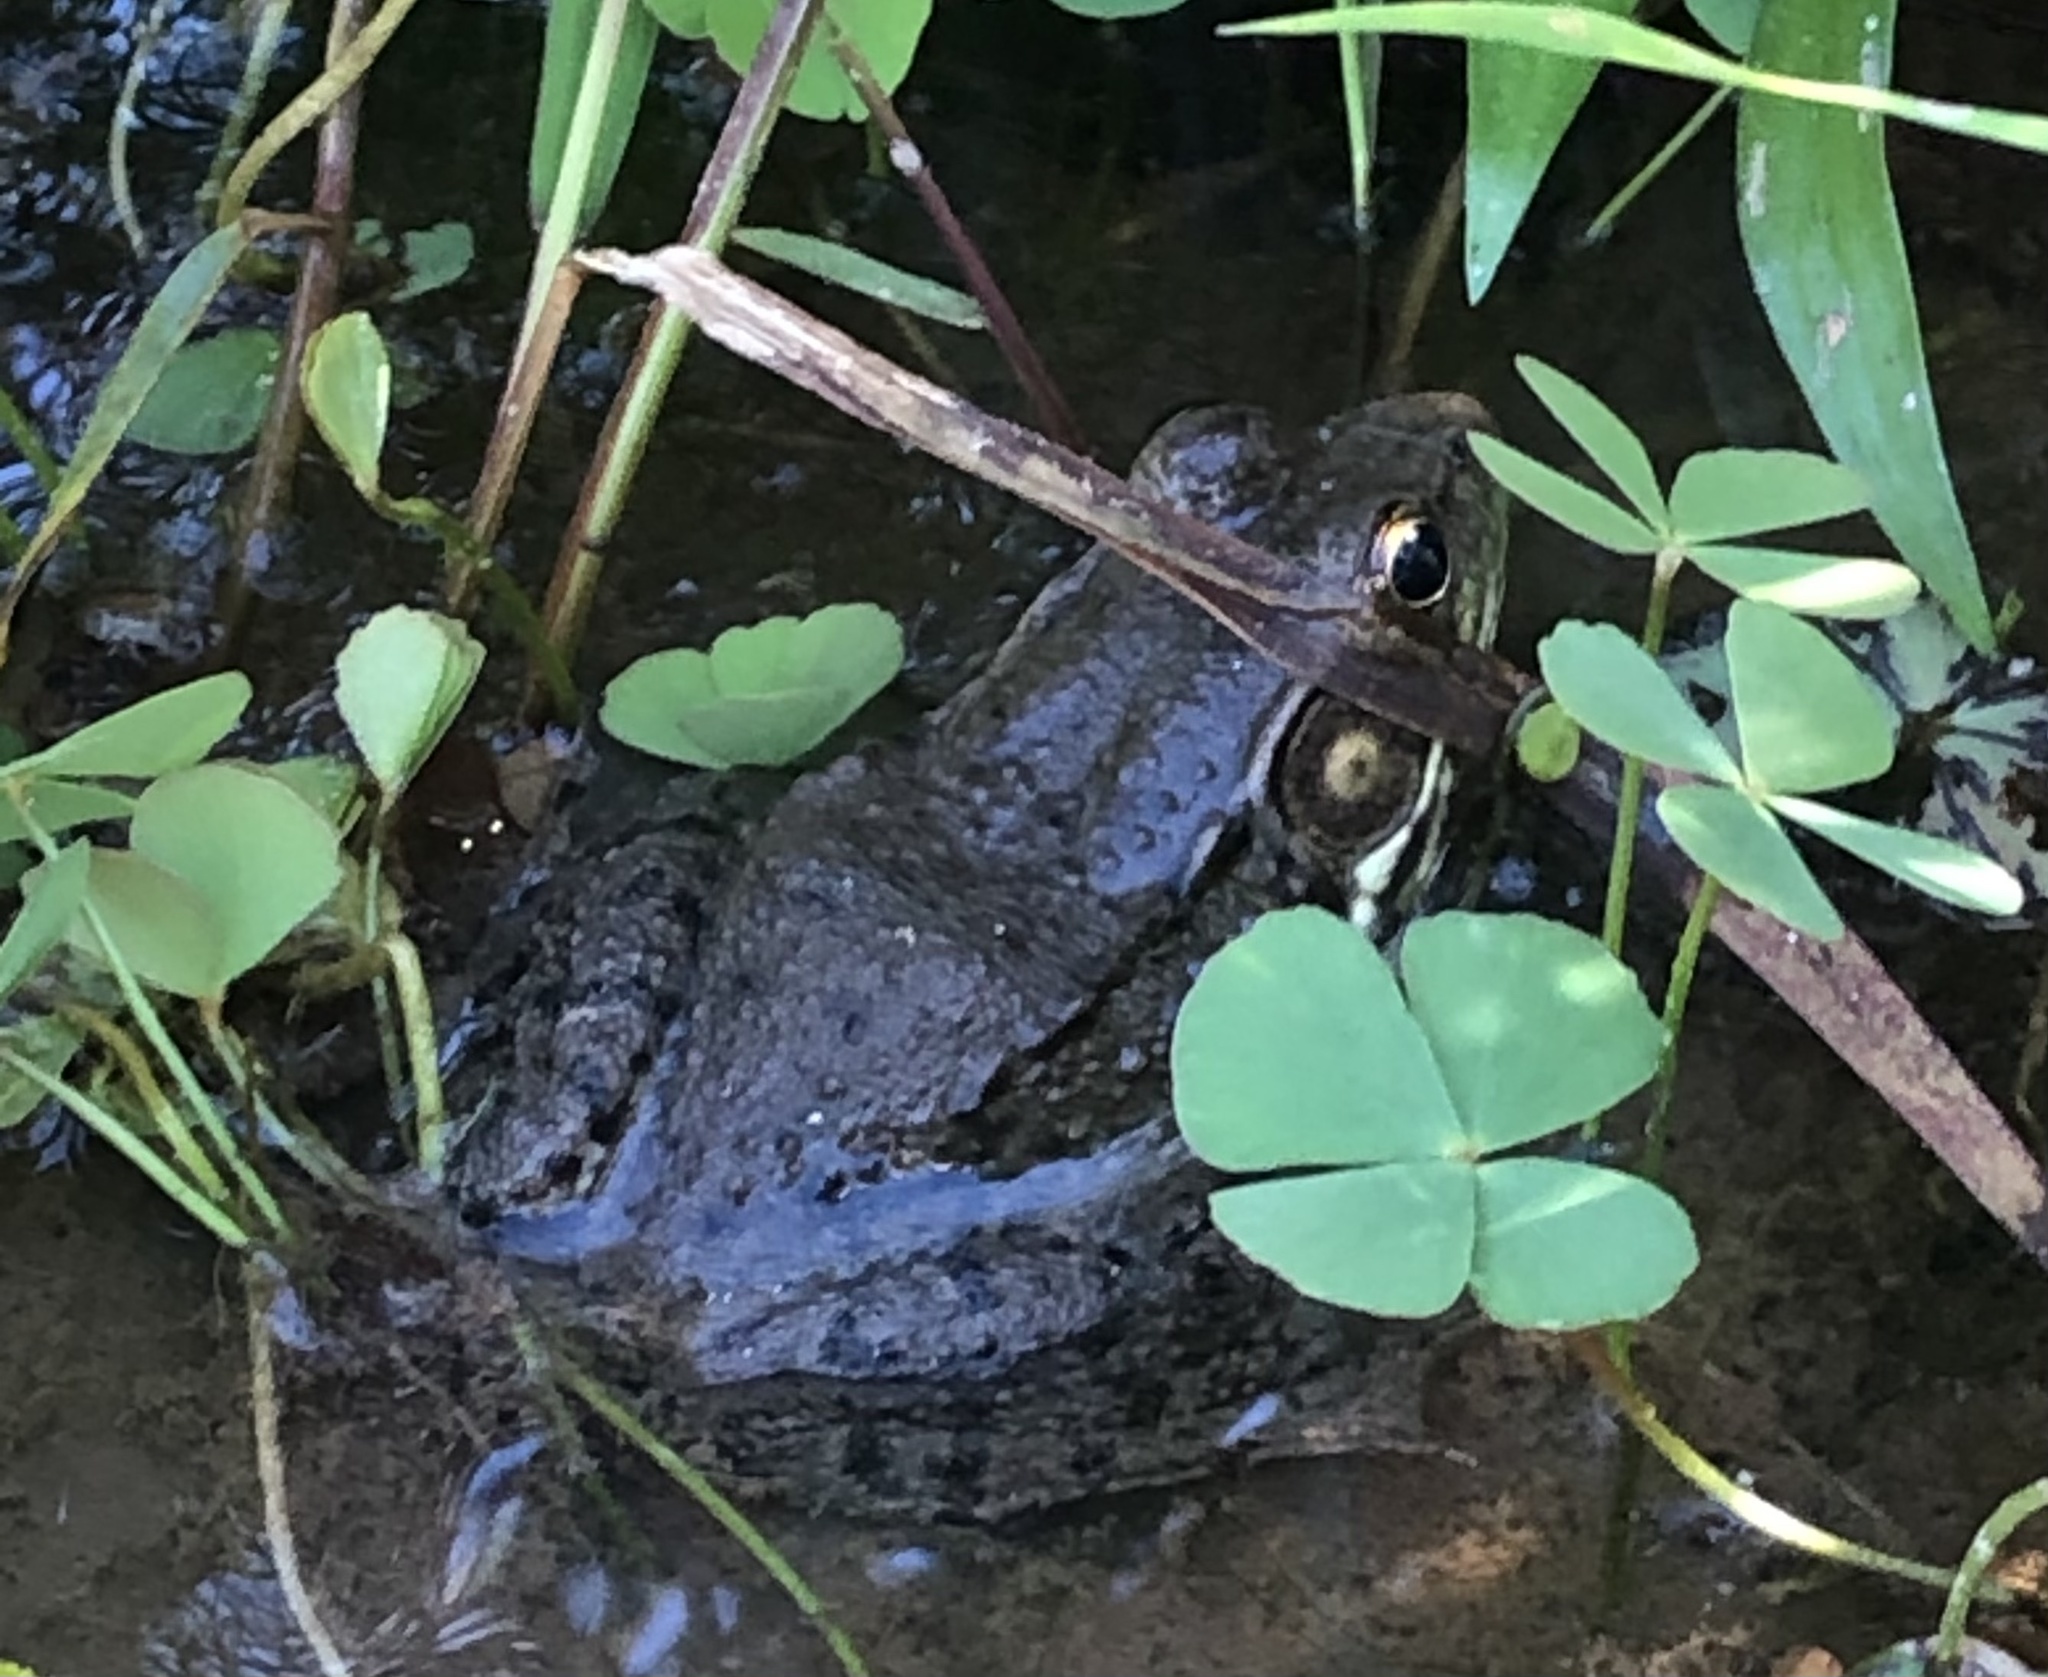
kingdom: Animalia
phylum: Chordata
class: Amphibia
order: Anura
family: Ranidae
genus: Lithobates
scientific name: Lithobates clamitans
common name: Green frog
